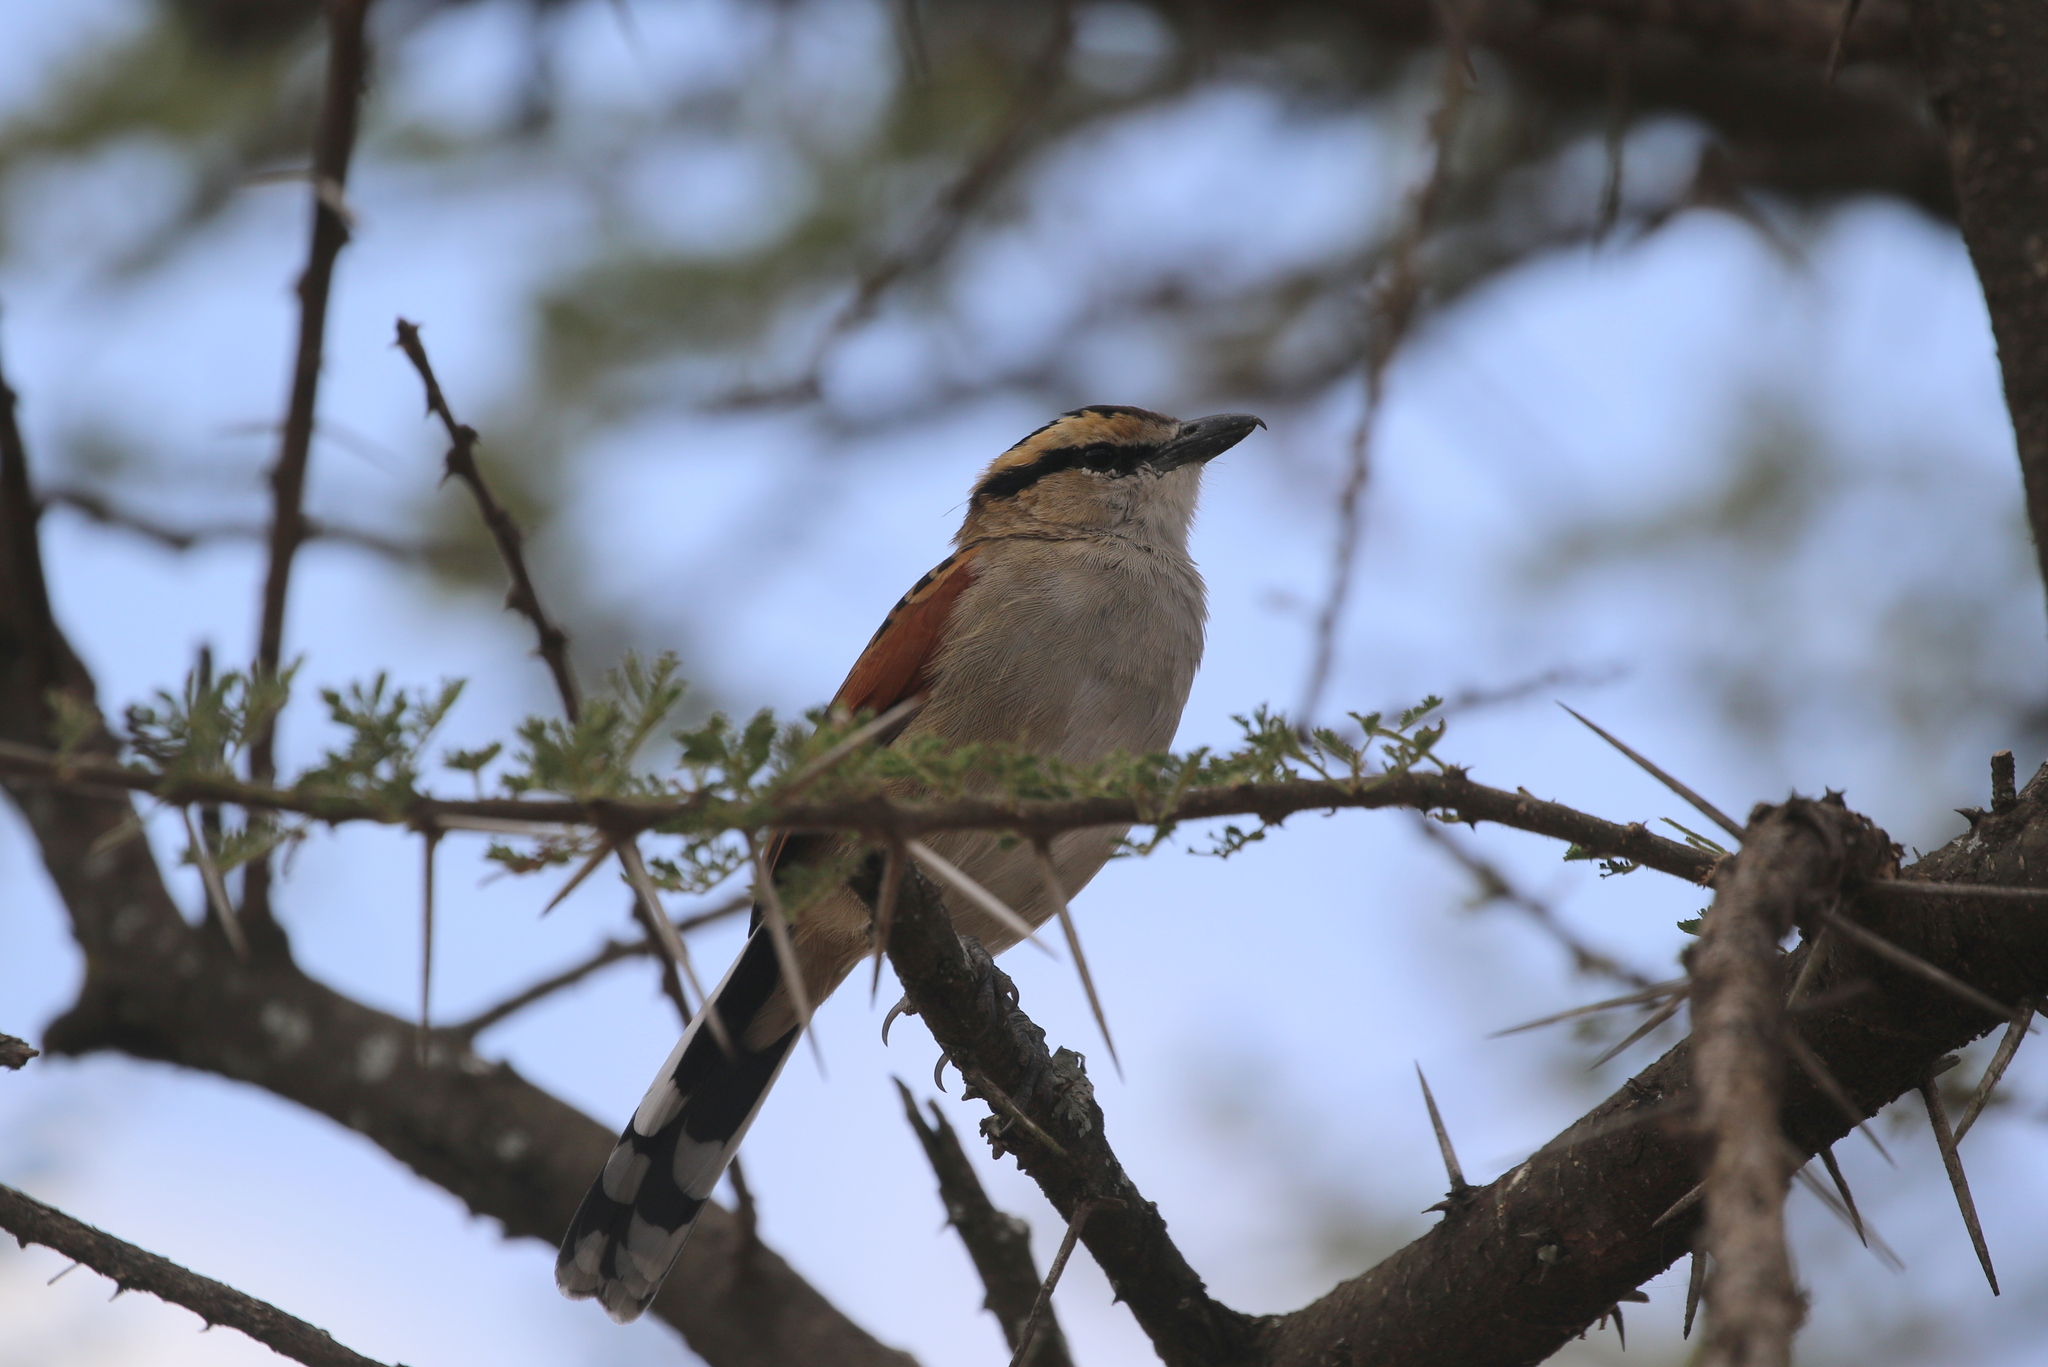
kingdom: Animalia
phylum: Chordata
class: Aves
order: Passeriformes
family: Malaconotidae
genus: Tchagra
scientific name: Tchagra senegalus
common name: Black-crowned tchagra
